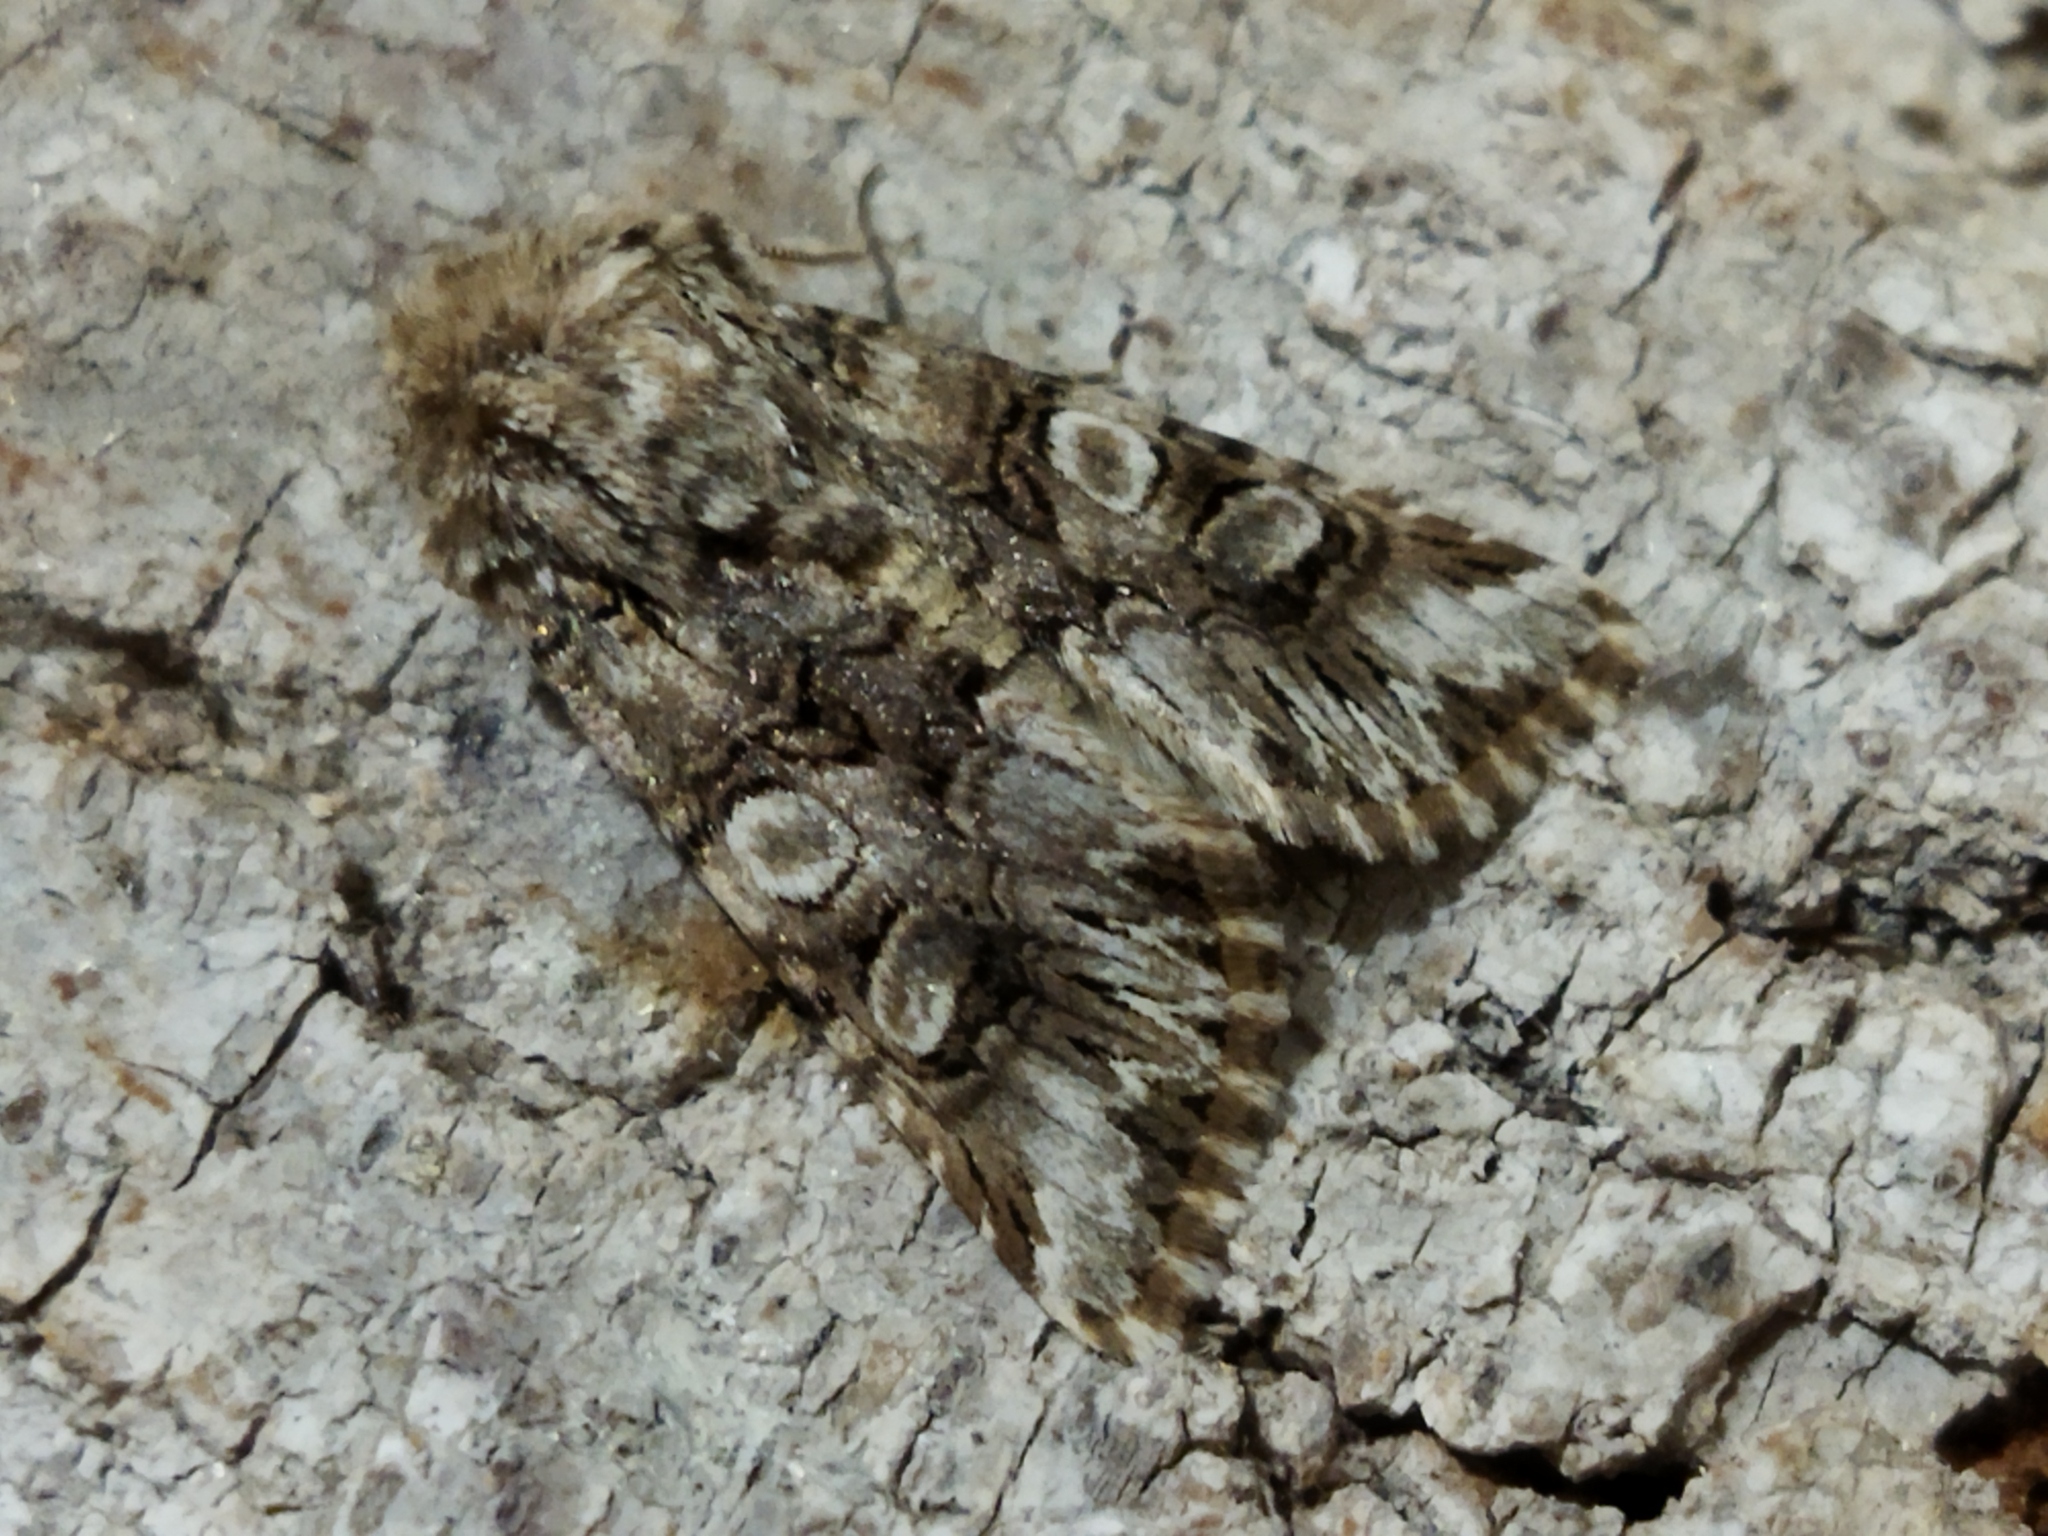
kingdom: Animalia
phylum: Arthropoda
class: Insecta
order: Lepidoptera
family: Noctuidae
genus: Hadena
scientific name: Hadena silenes
